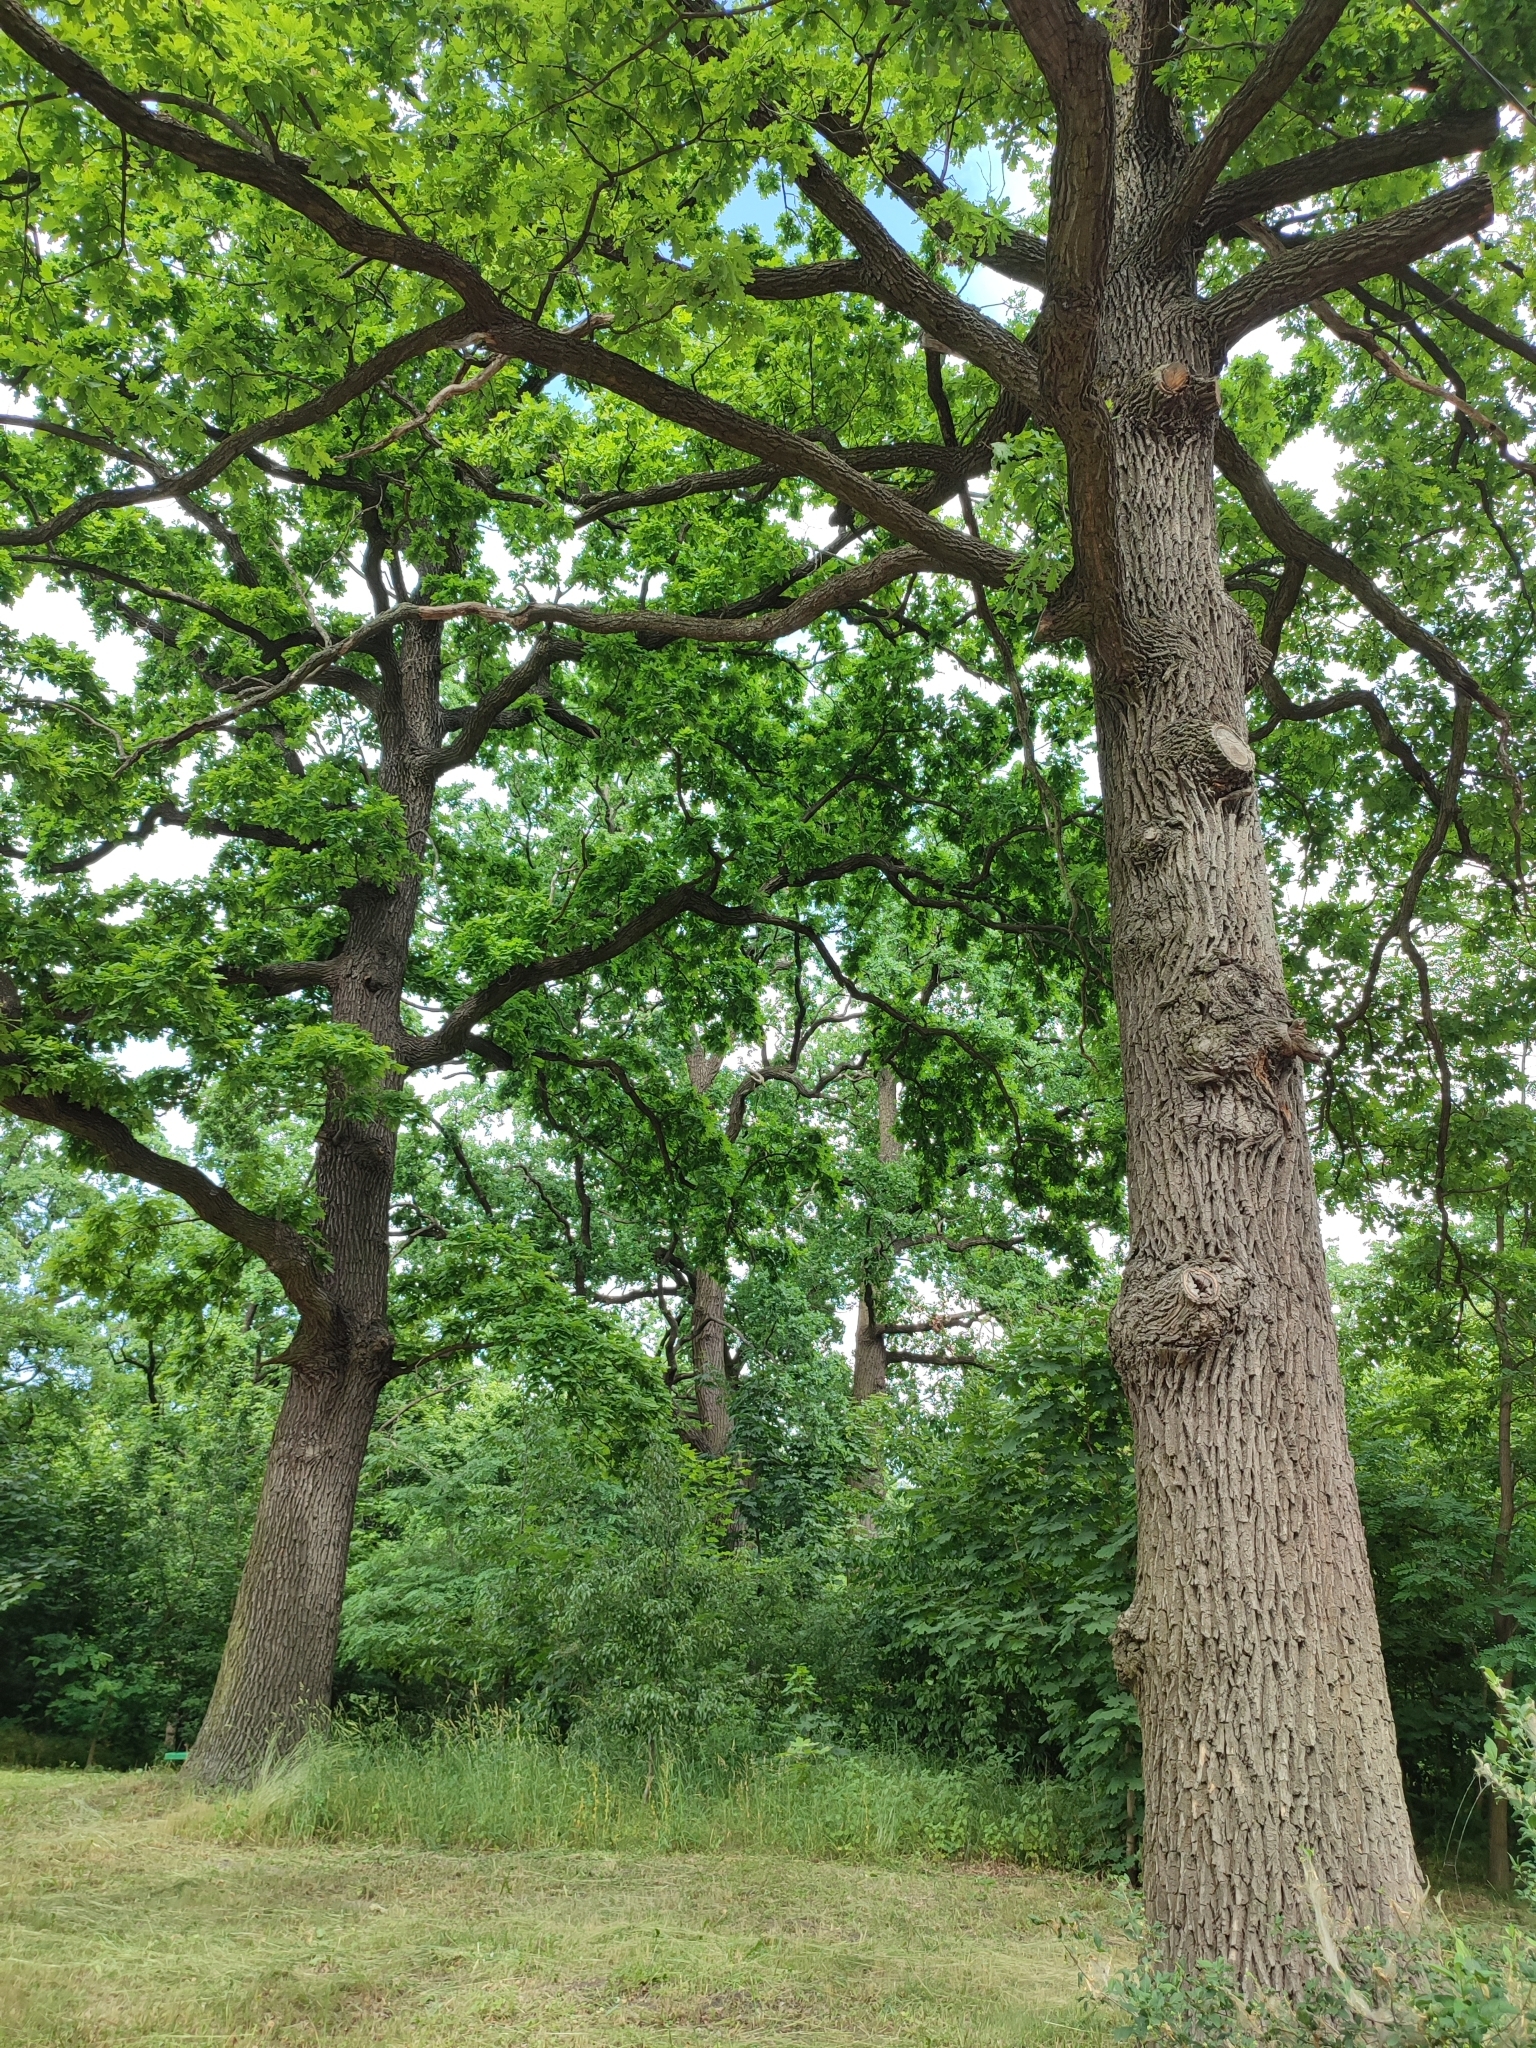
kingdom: Plantae
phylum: Tracheophyta
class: Magnoliopsida
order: Fagales
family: Fagaceae
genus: Quercus
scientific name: Quercus robur
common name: Pedunculate oak
